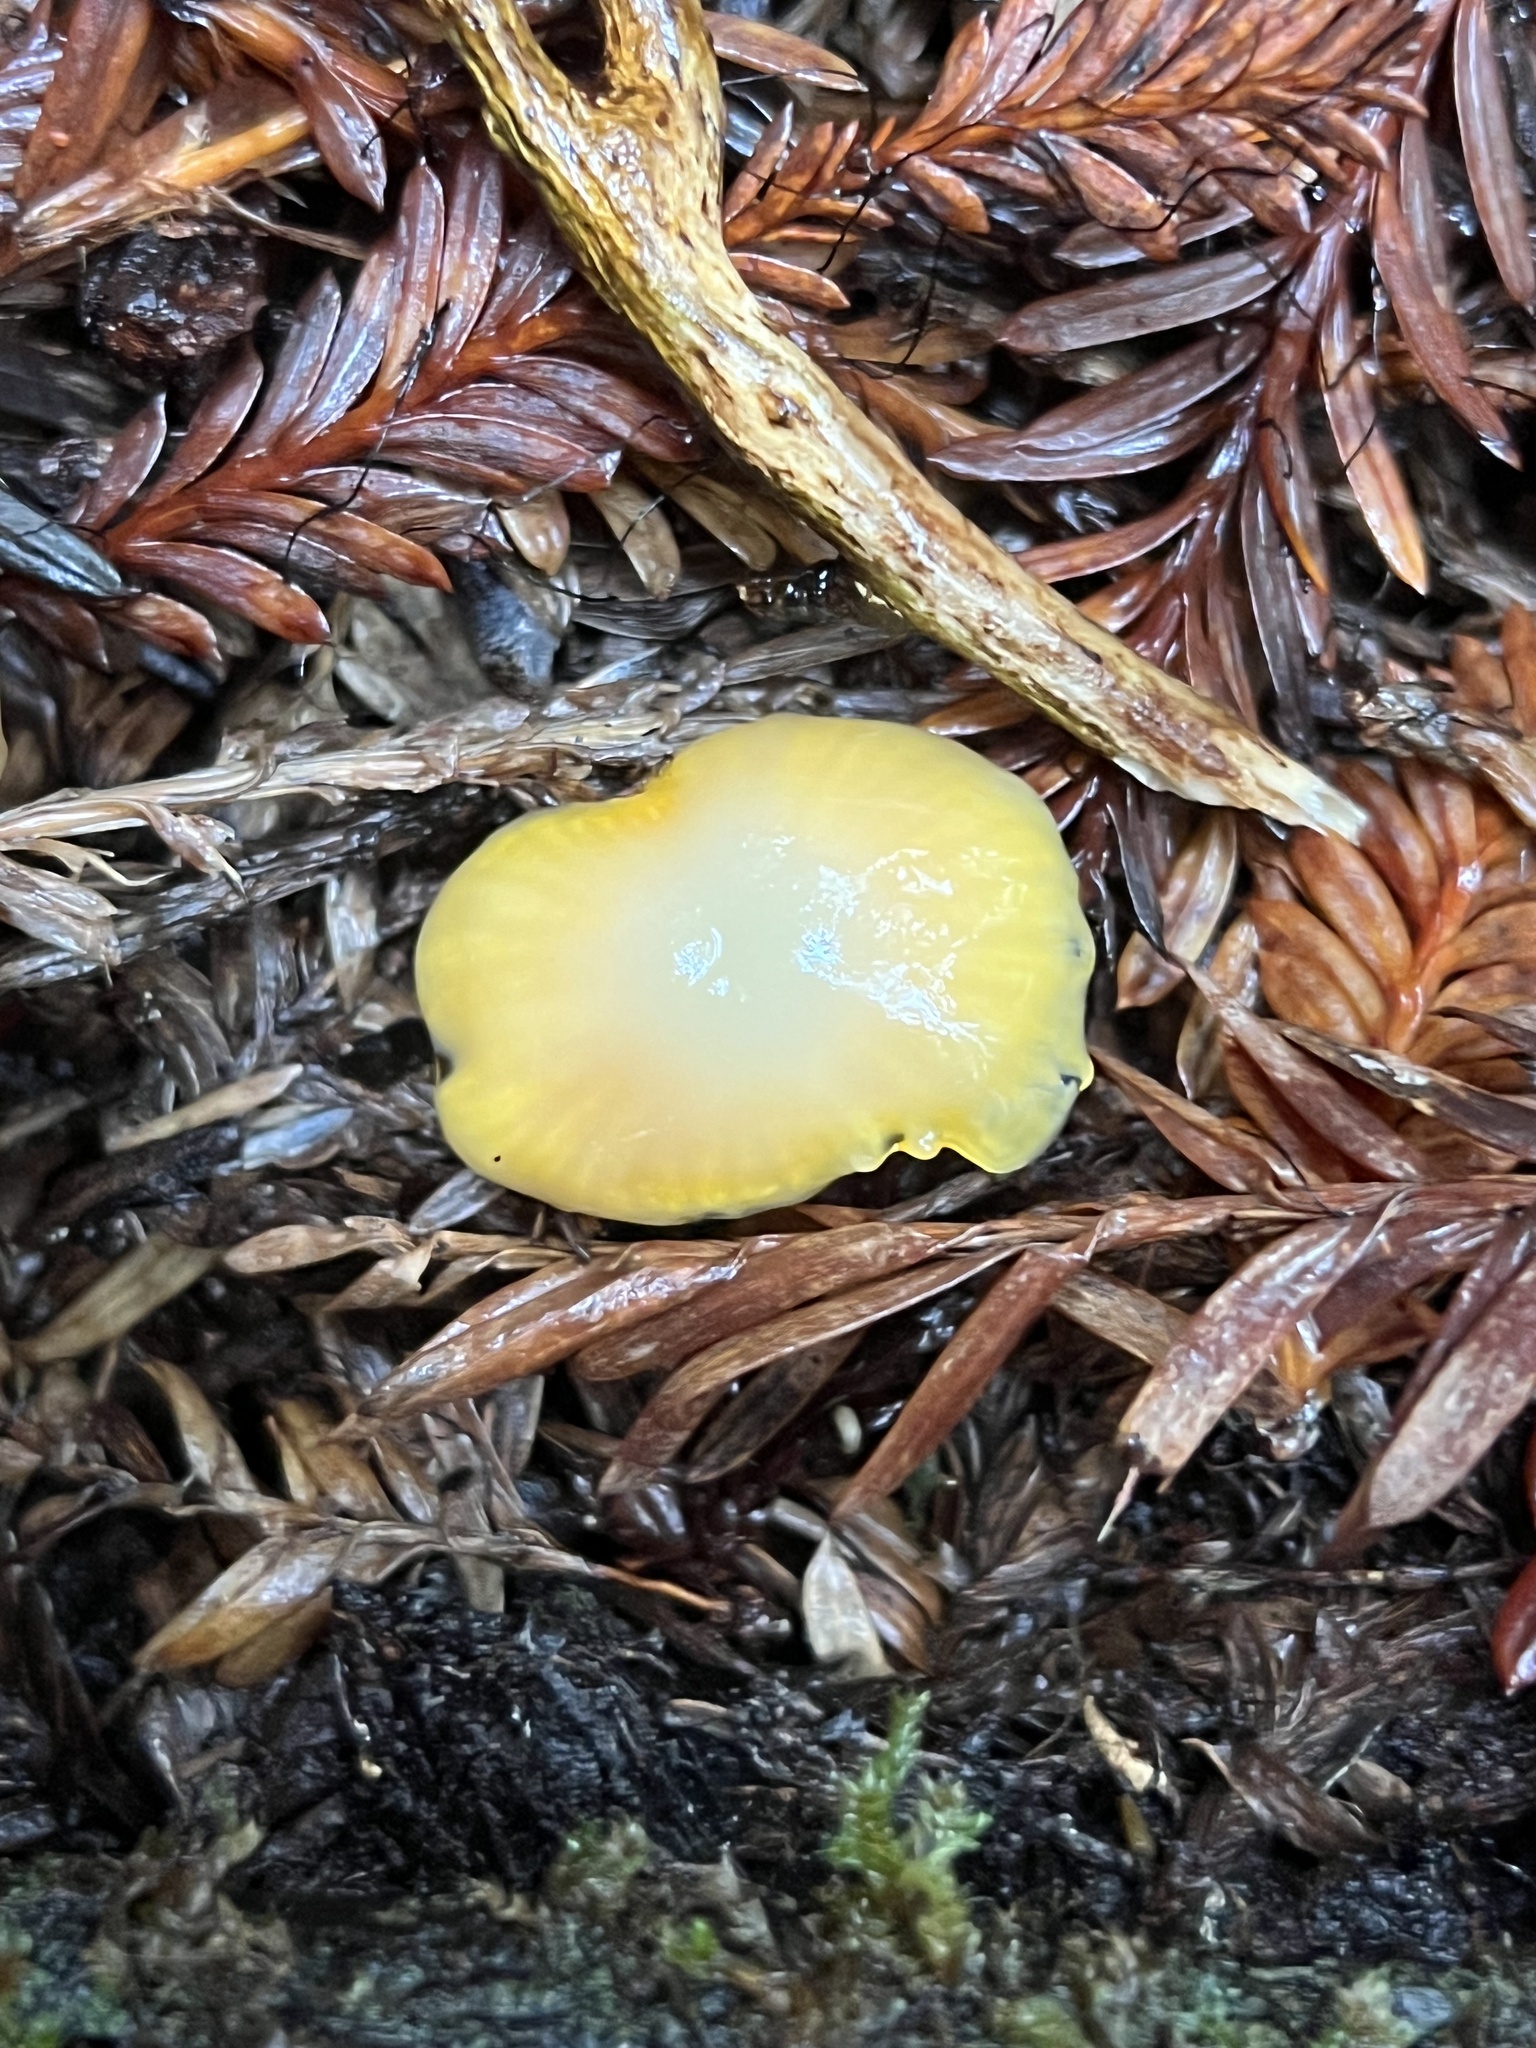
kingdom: Fungi
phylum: Basidiomycota
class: Agaricomycetes
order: Agaricales
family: Hygrophoraceae
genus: Hygrocybe
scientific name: Hygrocybe flavifolia
